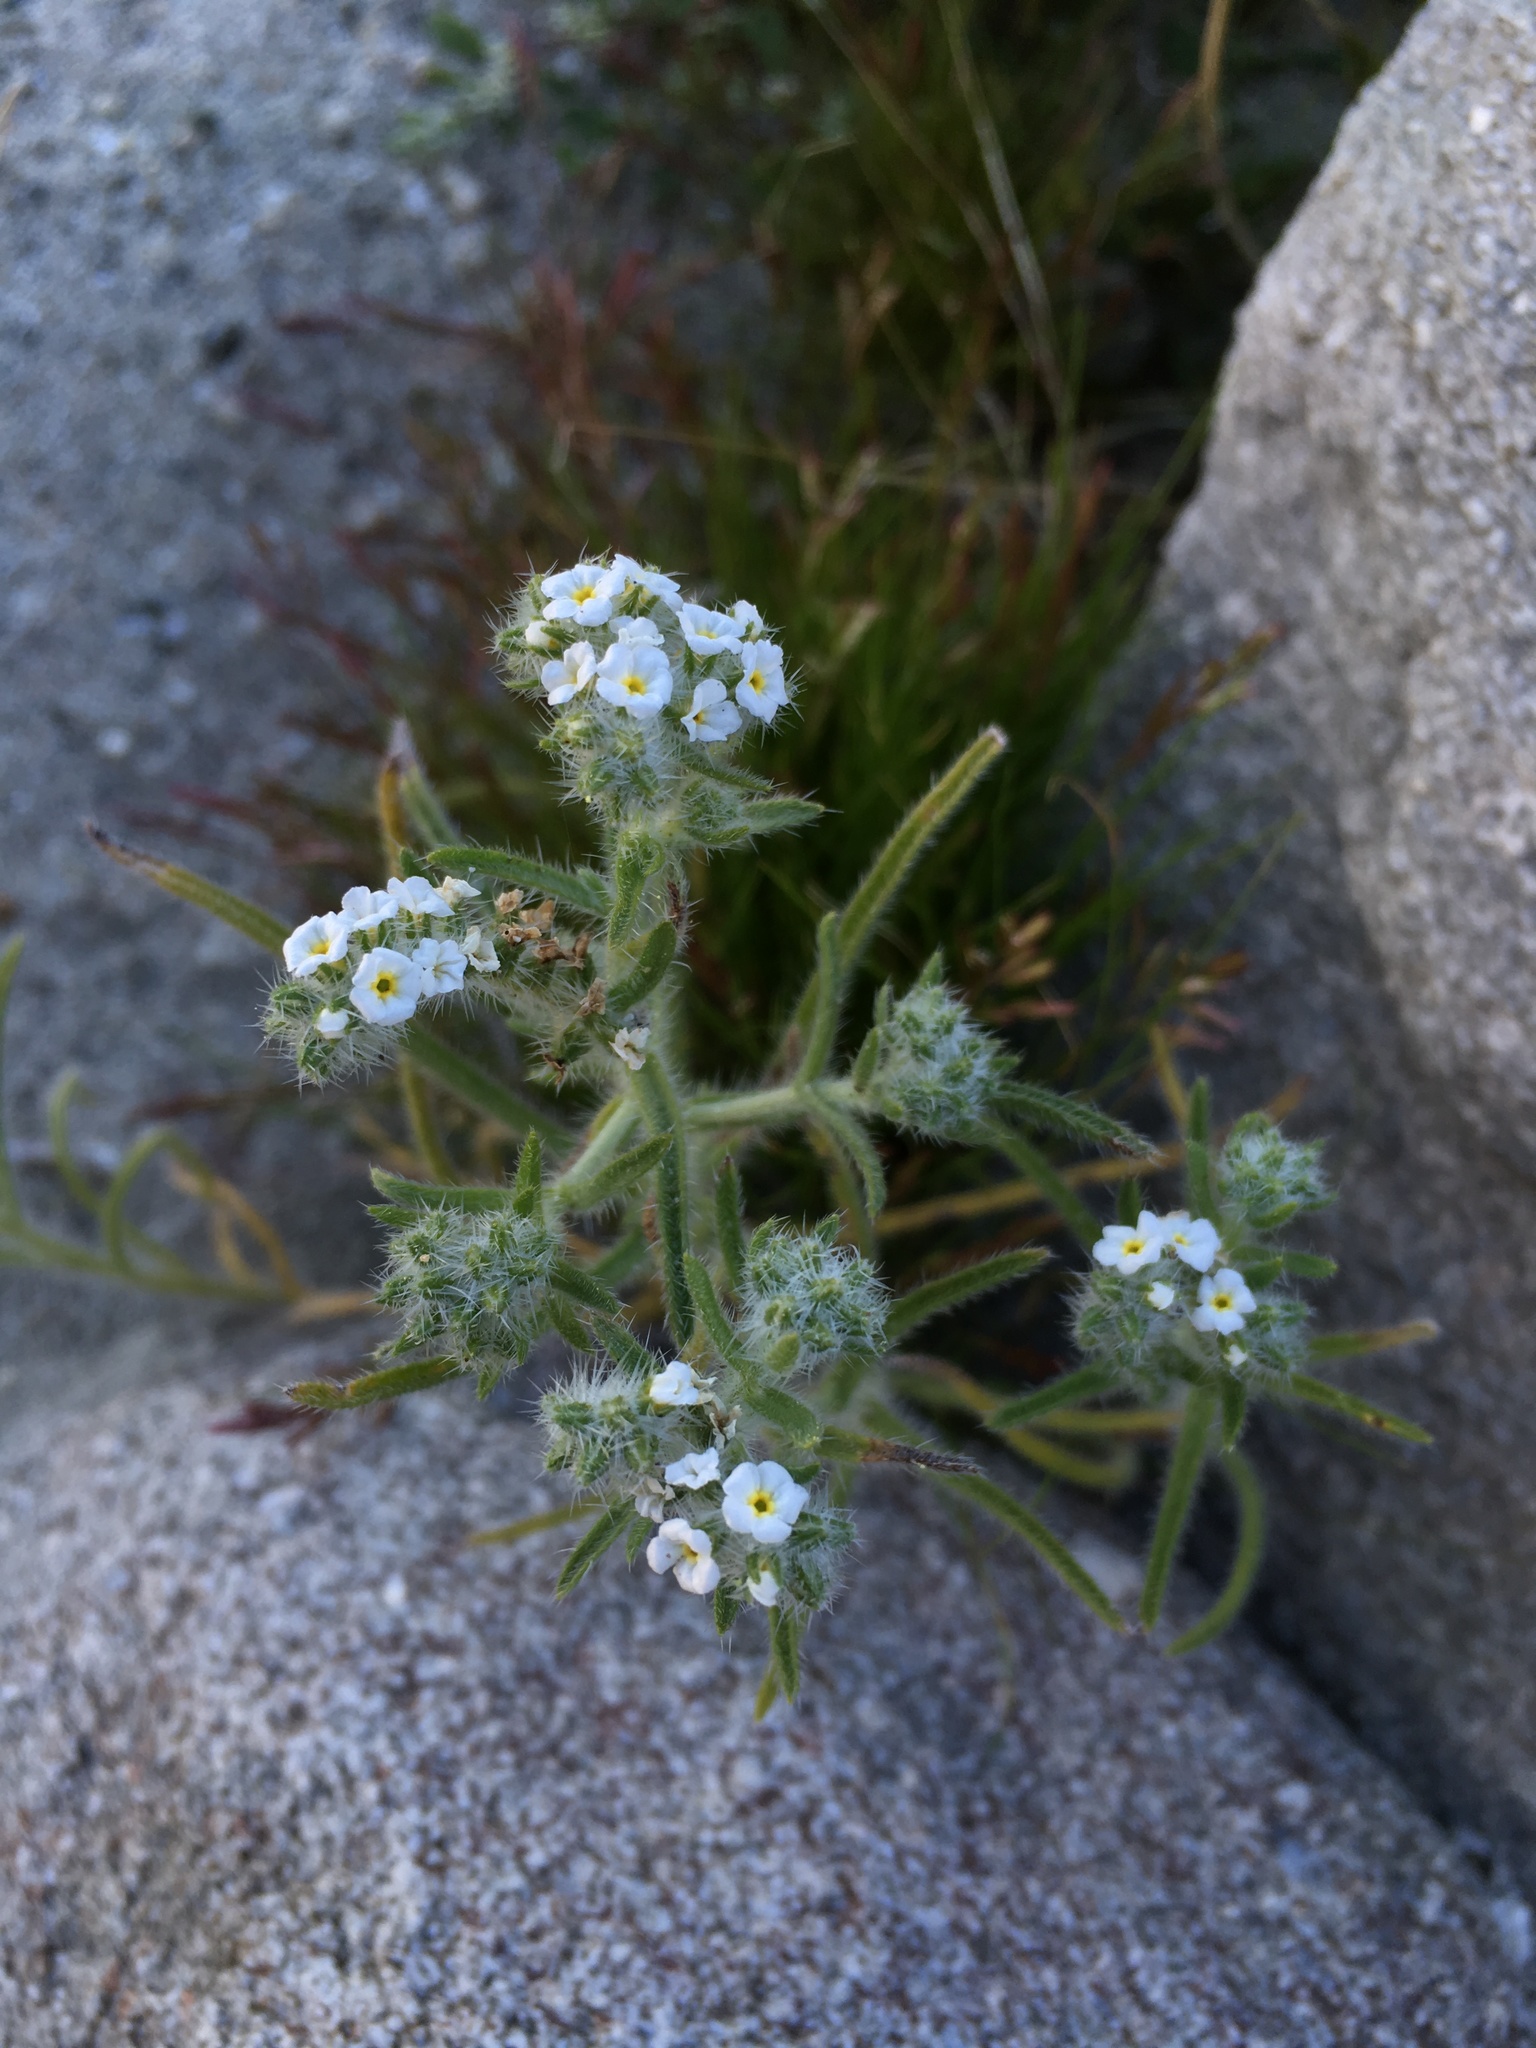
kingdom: Plantae
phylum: Tracheophyta
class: Magnoliopsida
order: Boraginales
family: Boraginaceae
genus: Johnstonella
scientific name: Johnstonella angustifolia
